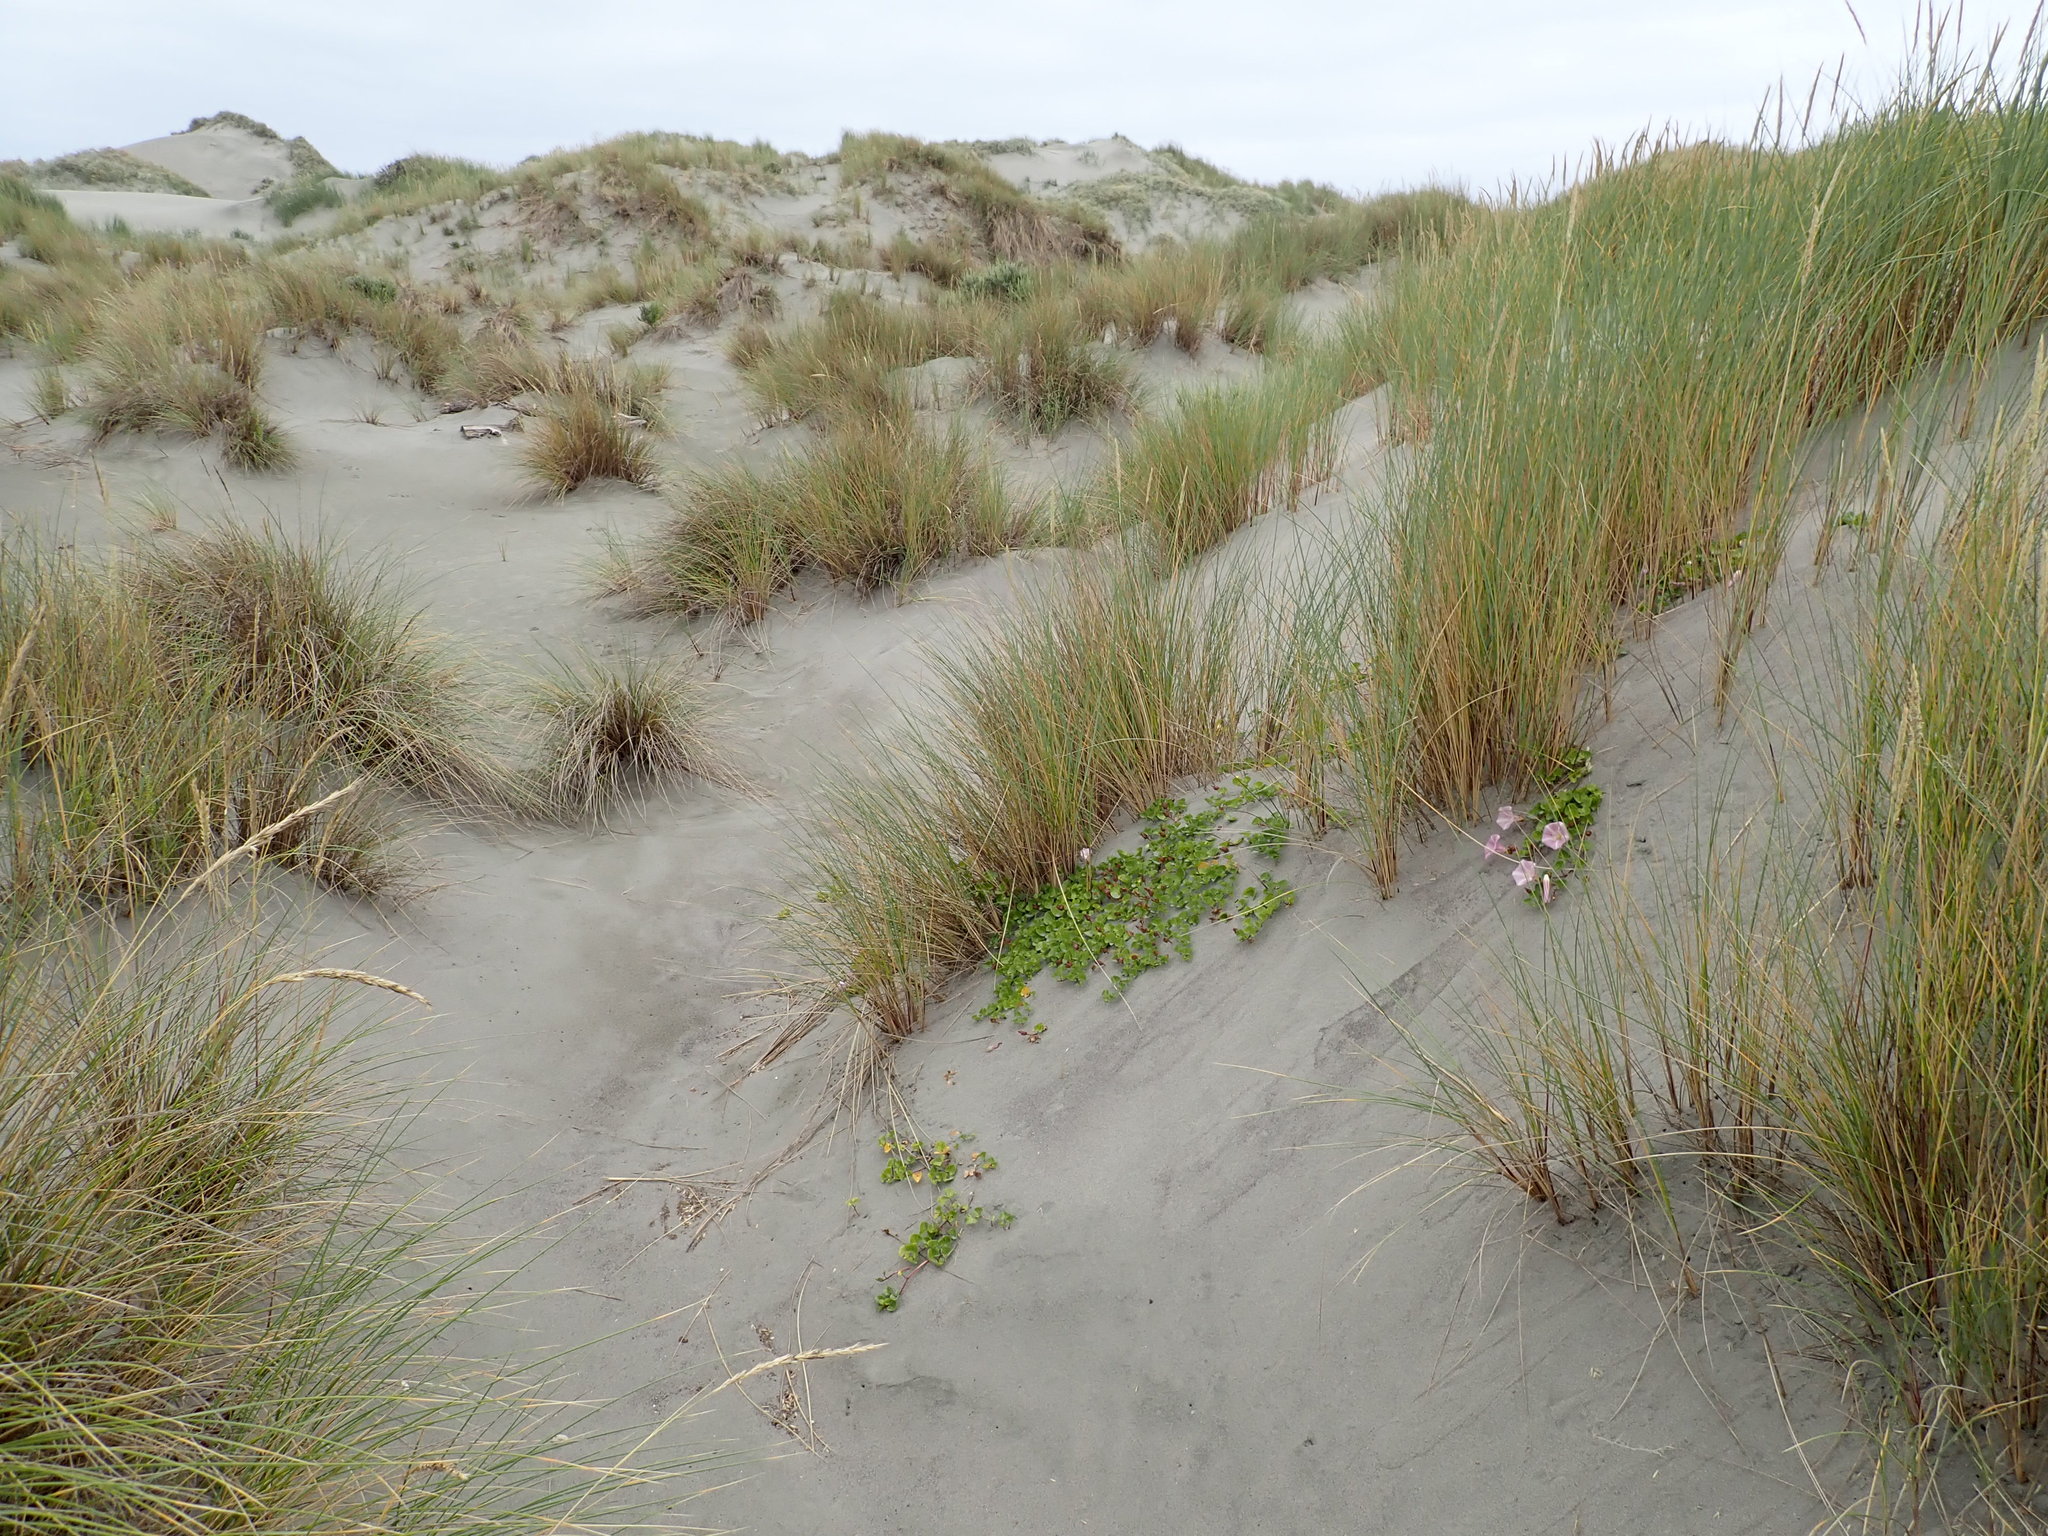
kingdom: Plantae
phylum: Tracheophyta
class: Magnoliopsida
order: Solanales
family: Convolvulaceae
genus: Calystegia
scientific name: Calystegia soldanella
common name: Sea bindweed
